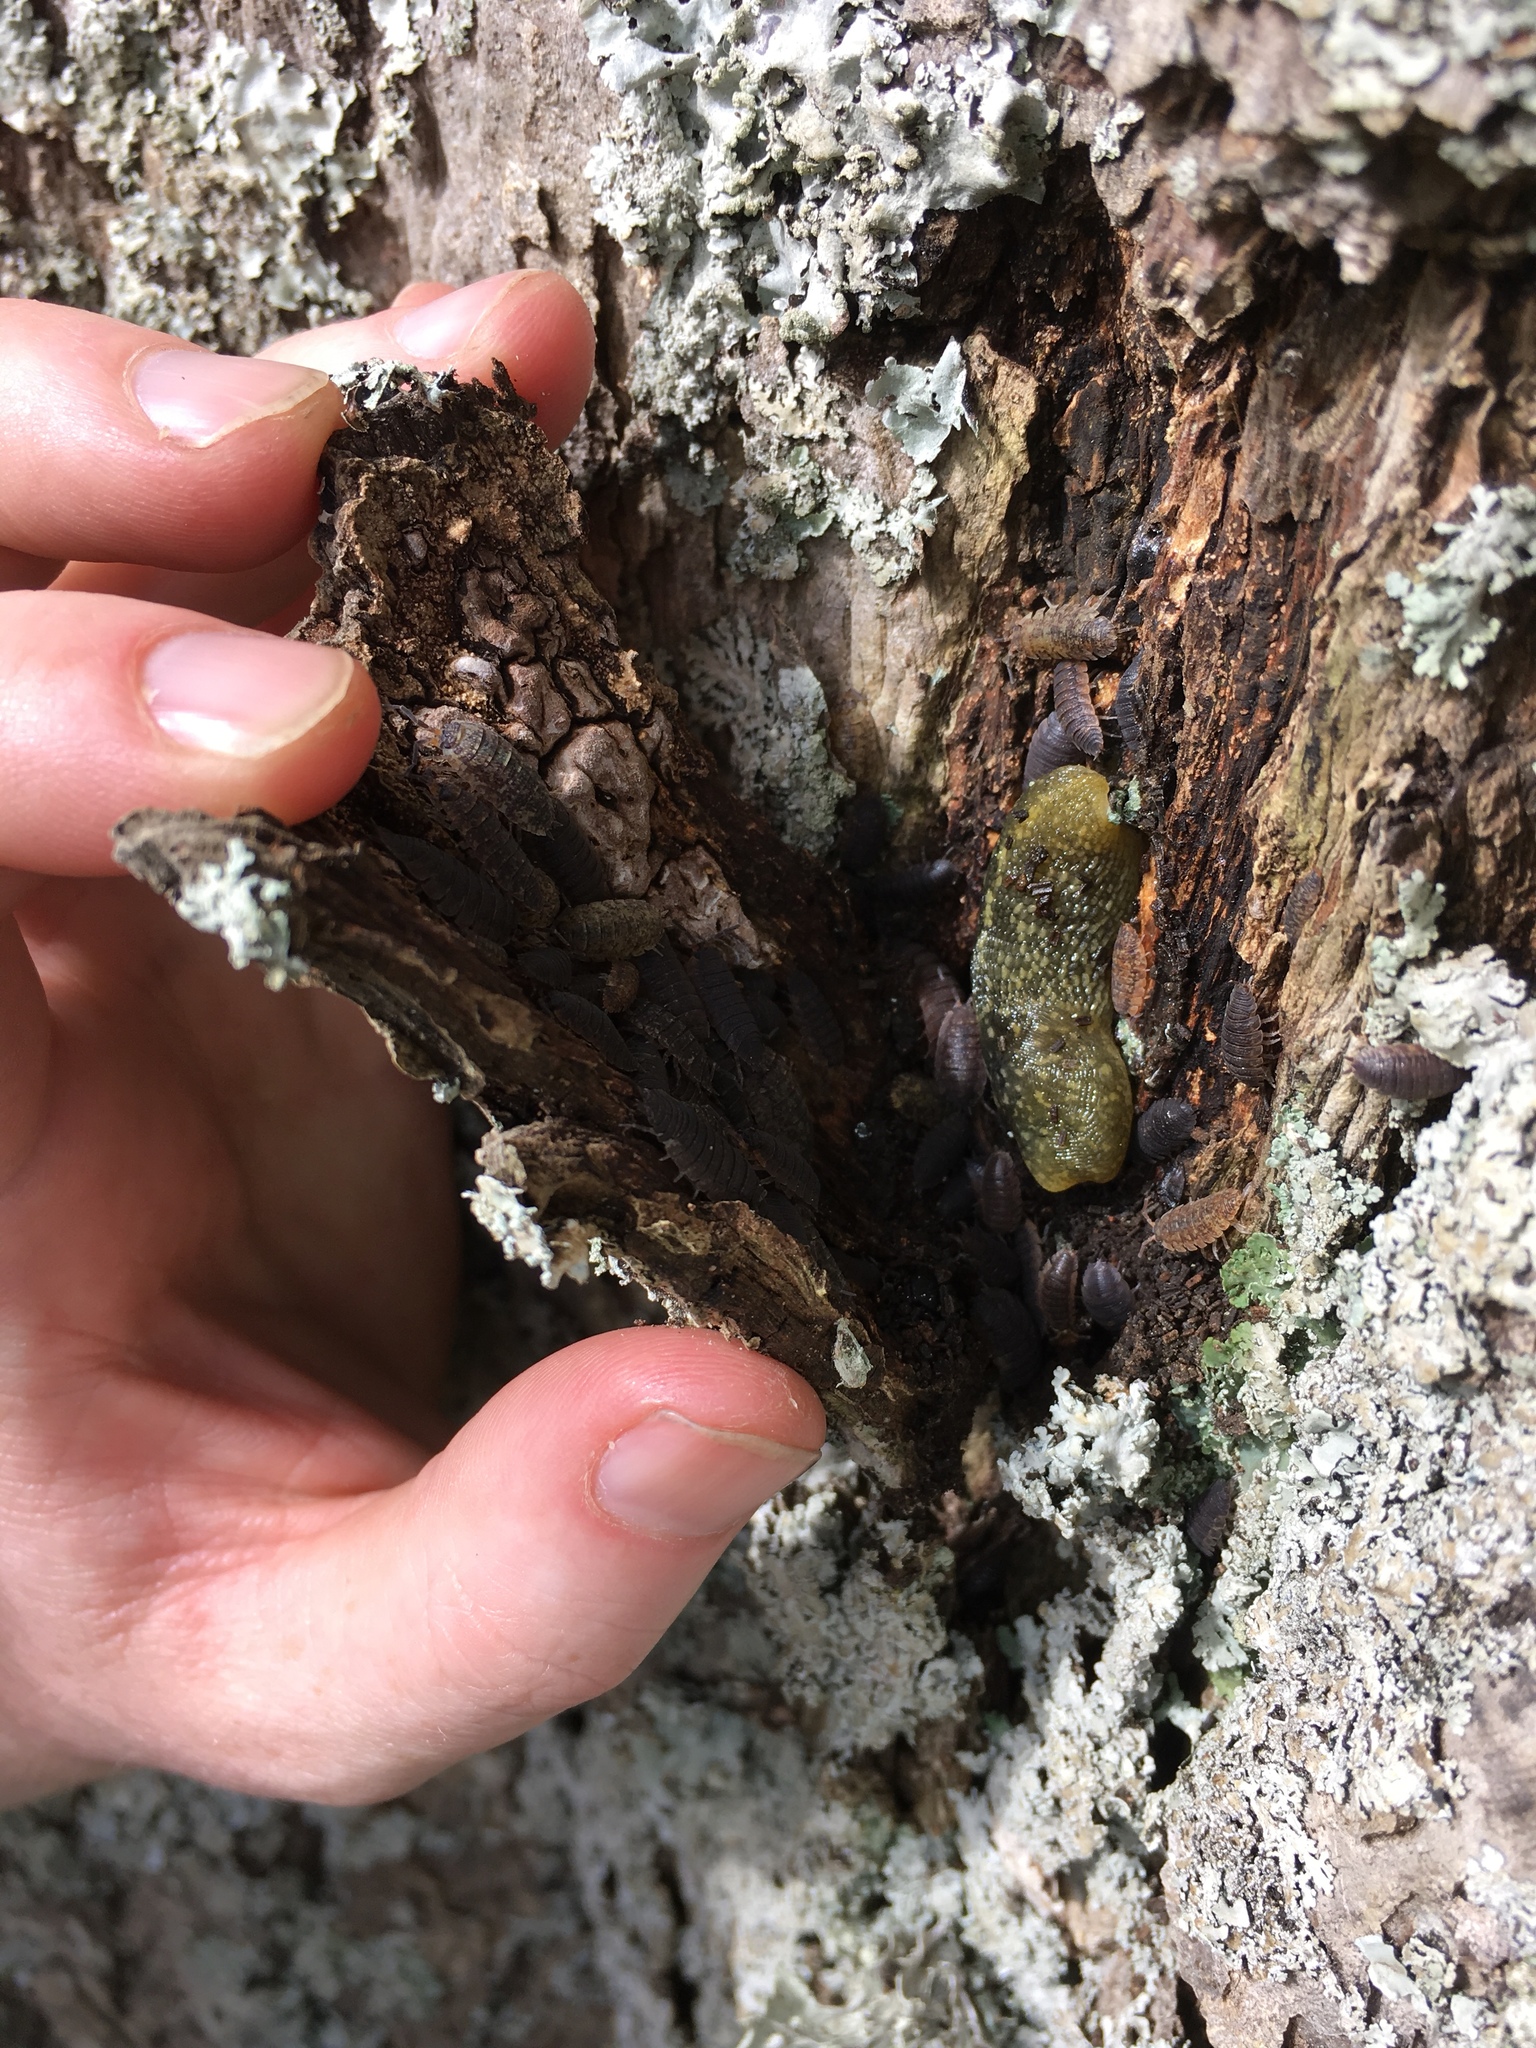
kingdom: Animalia
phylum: Mollusca
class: Gastropoda
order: Stylommatophora
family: Limacidae
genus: Limacus
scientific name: Limacus flavus
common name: Yellow gardenslug
